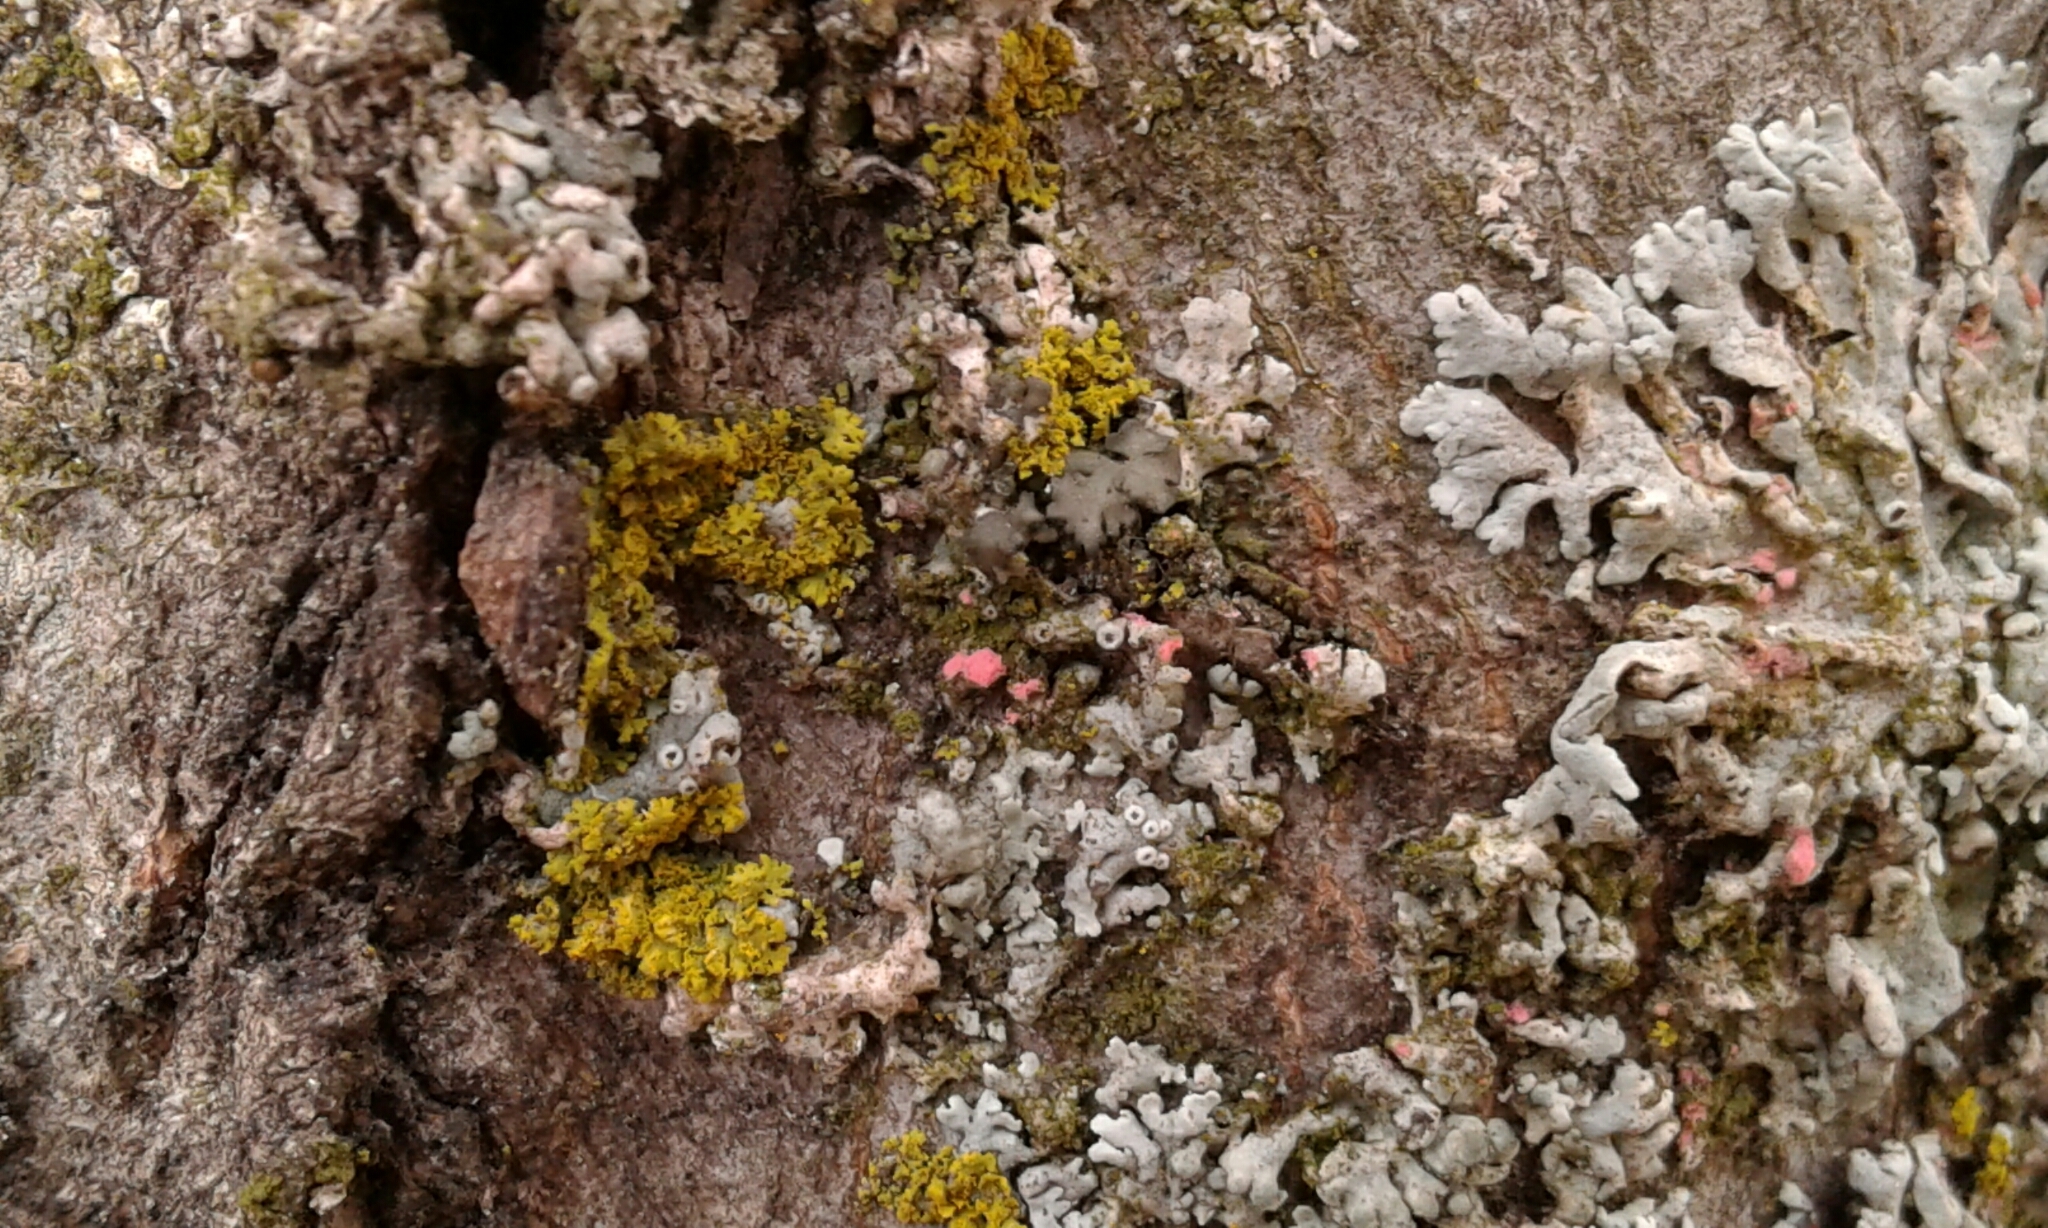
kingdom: Fungi
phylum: Ascomycota
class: Sordariomycetes
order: Hypocreales
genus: Illosporiopsis
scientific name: Illosporiopsis christiansenii
